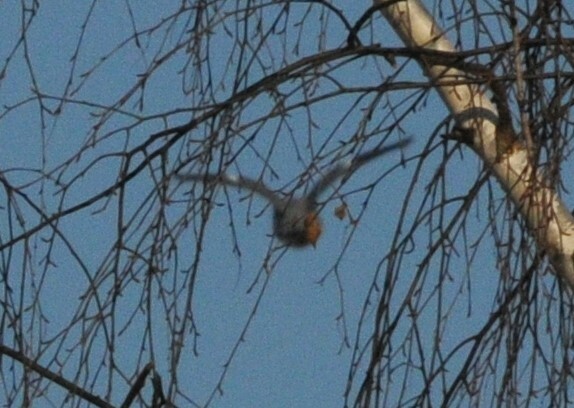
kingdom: Animalia
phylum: Chordata
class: Aves
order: Columbiformes
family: Columbidae
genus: Columba
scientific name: Columba palumbus
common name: Common wood pigeon
